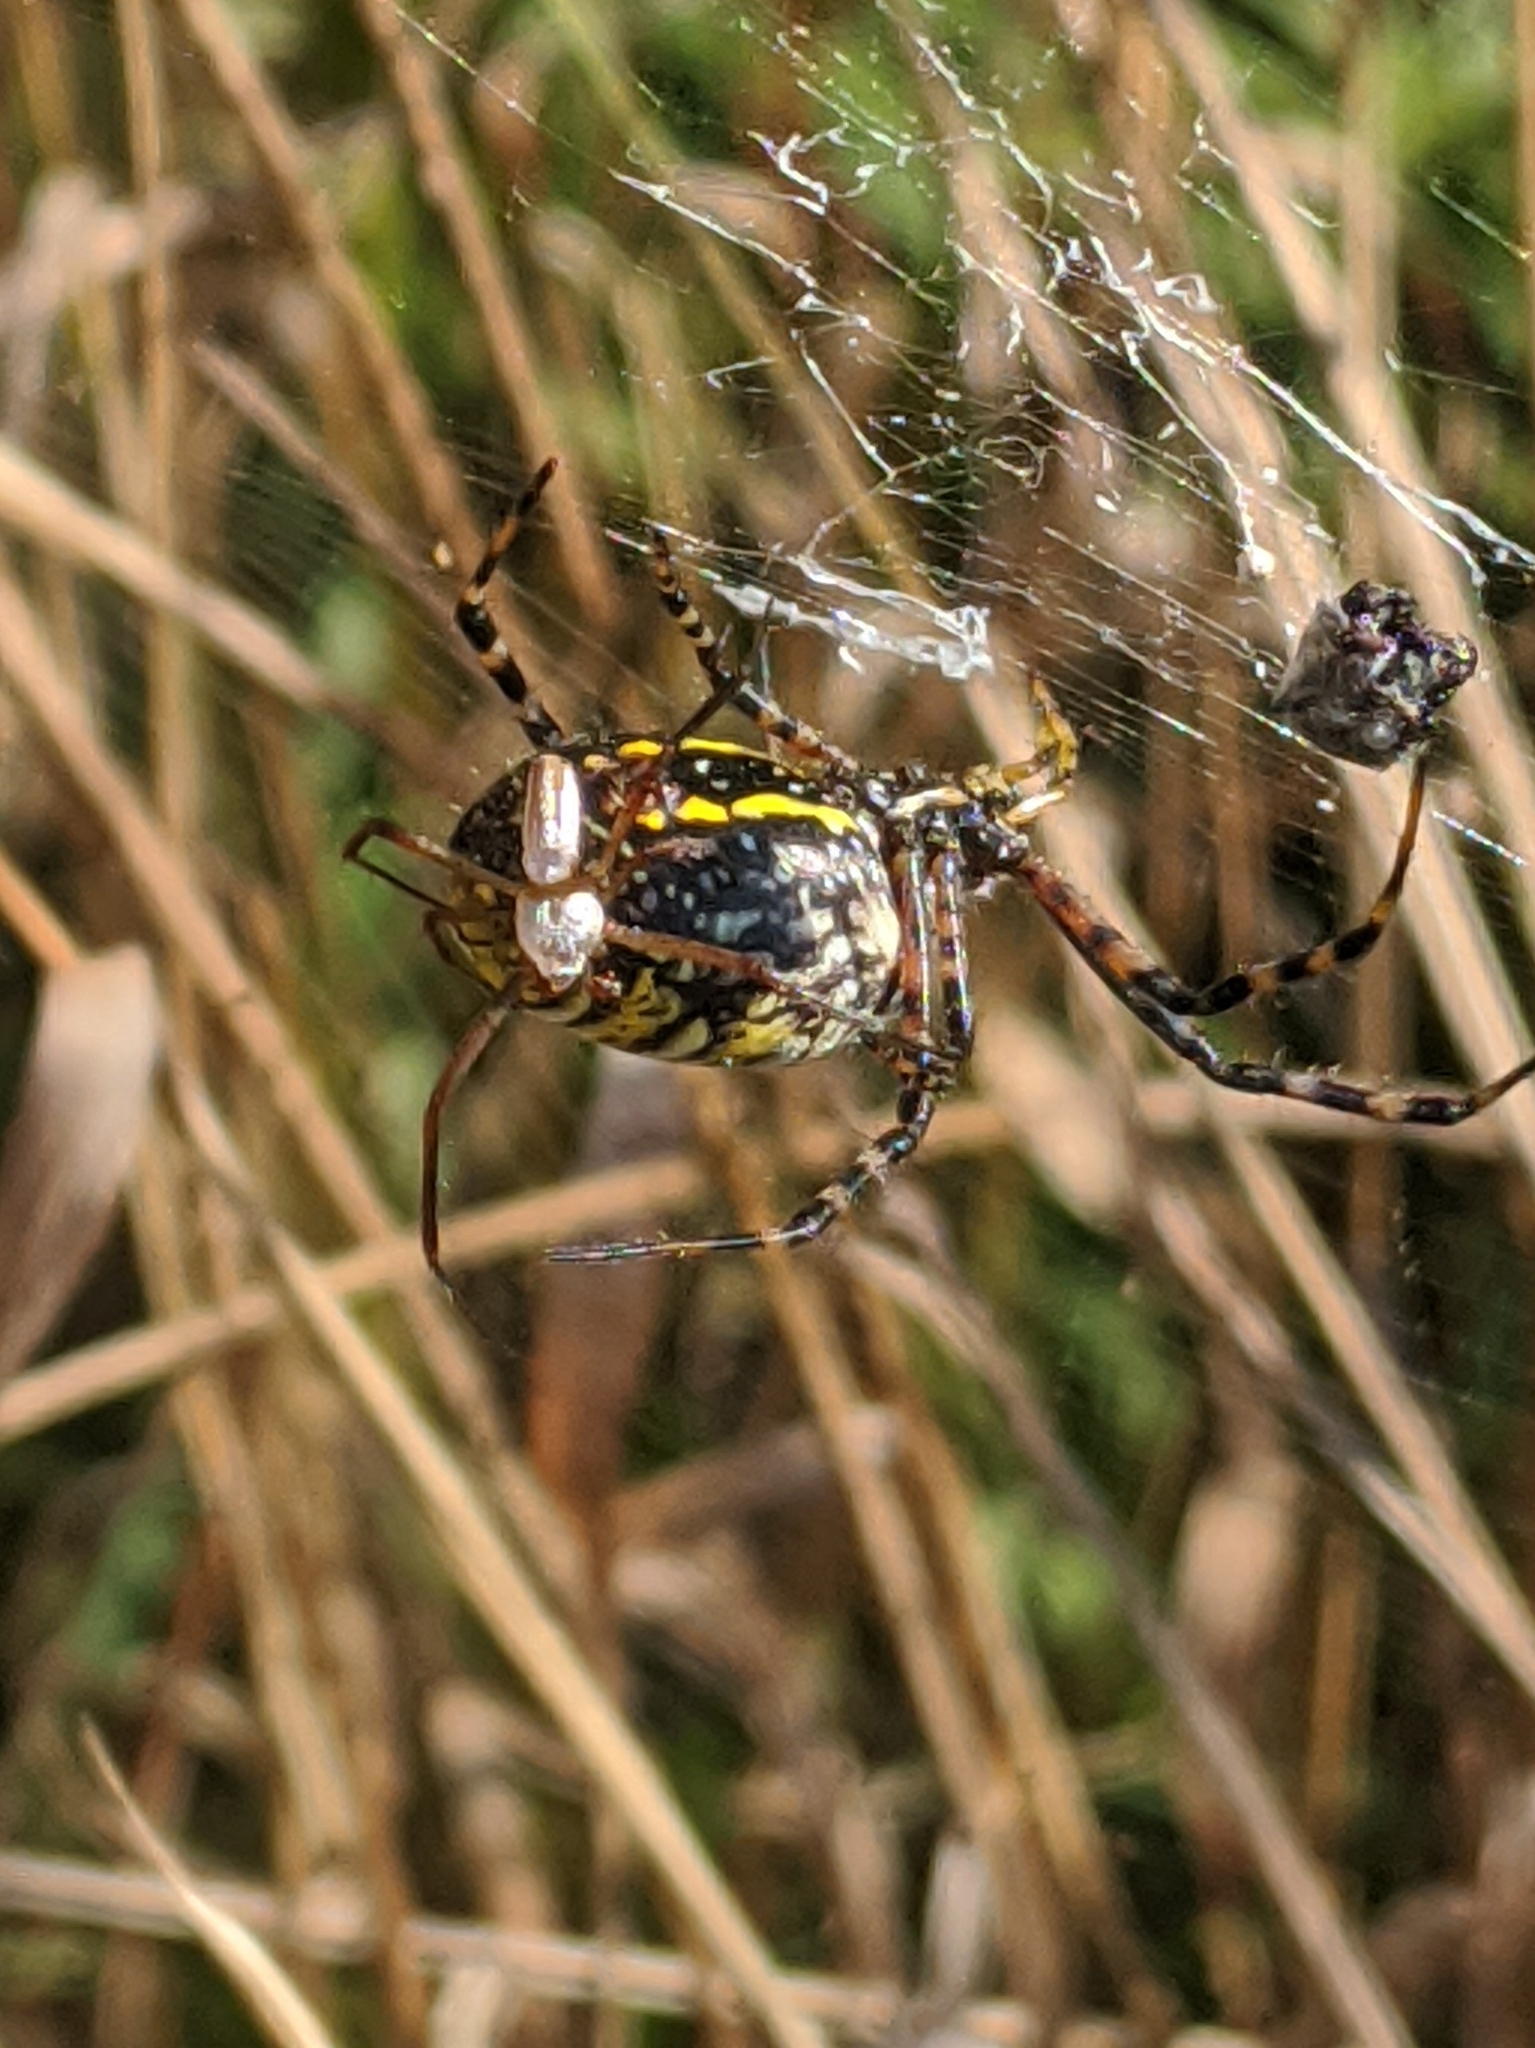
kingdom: Animalia
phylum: Arthropoda
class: Arachnida
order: Araneae
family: Araneidae
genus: Argiope
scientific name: Argiope trifasciata
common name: Banded garden spider
